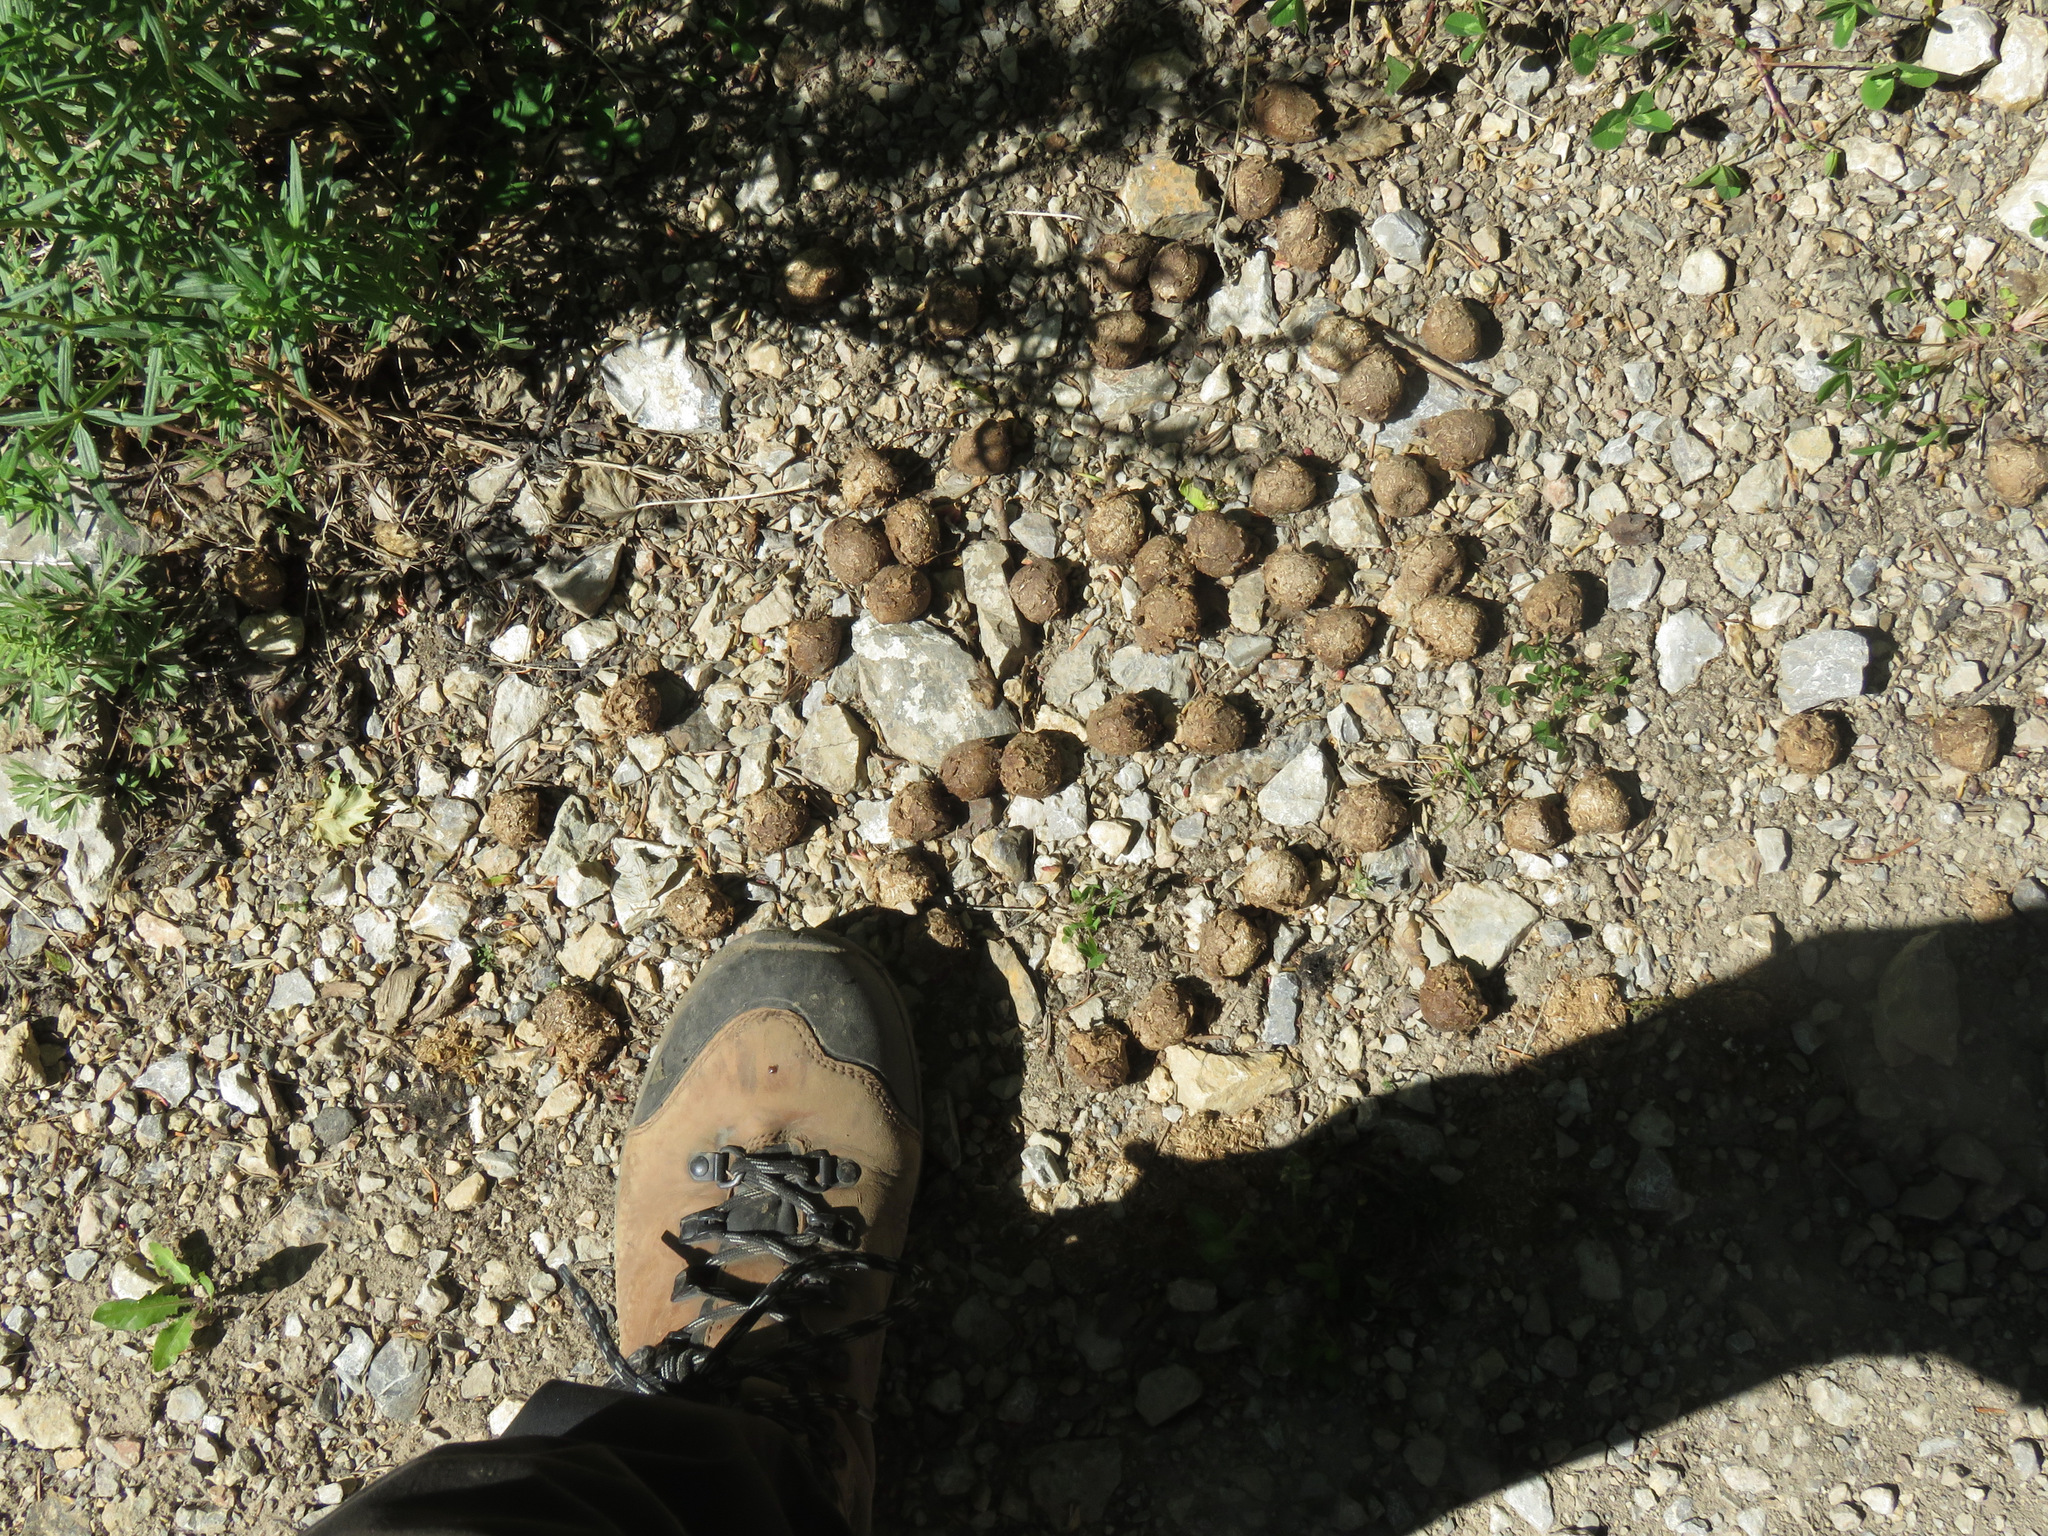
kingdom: Animalia
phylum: Chordata
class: Mammalia
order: Artiodactyla
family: Cervidae
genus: Alces
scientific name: Alces alces
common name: Moose
